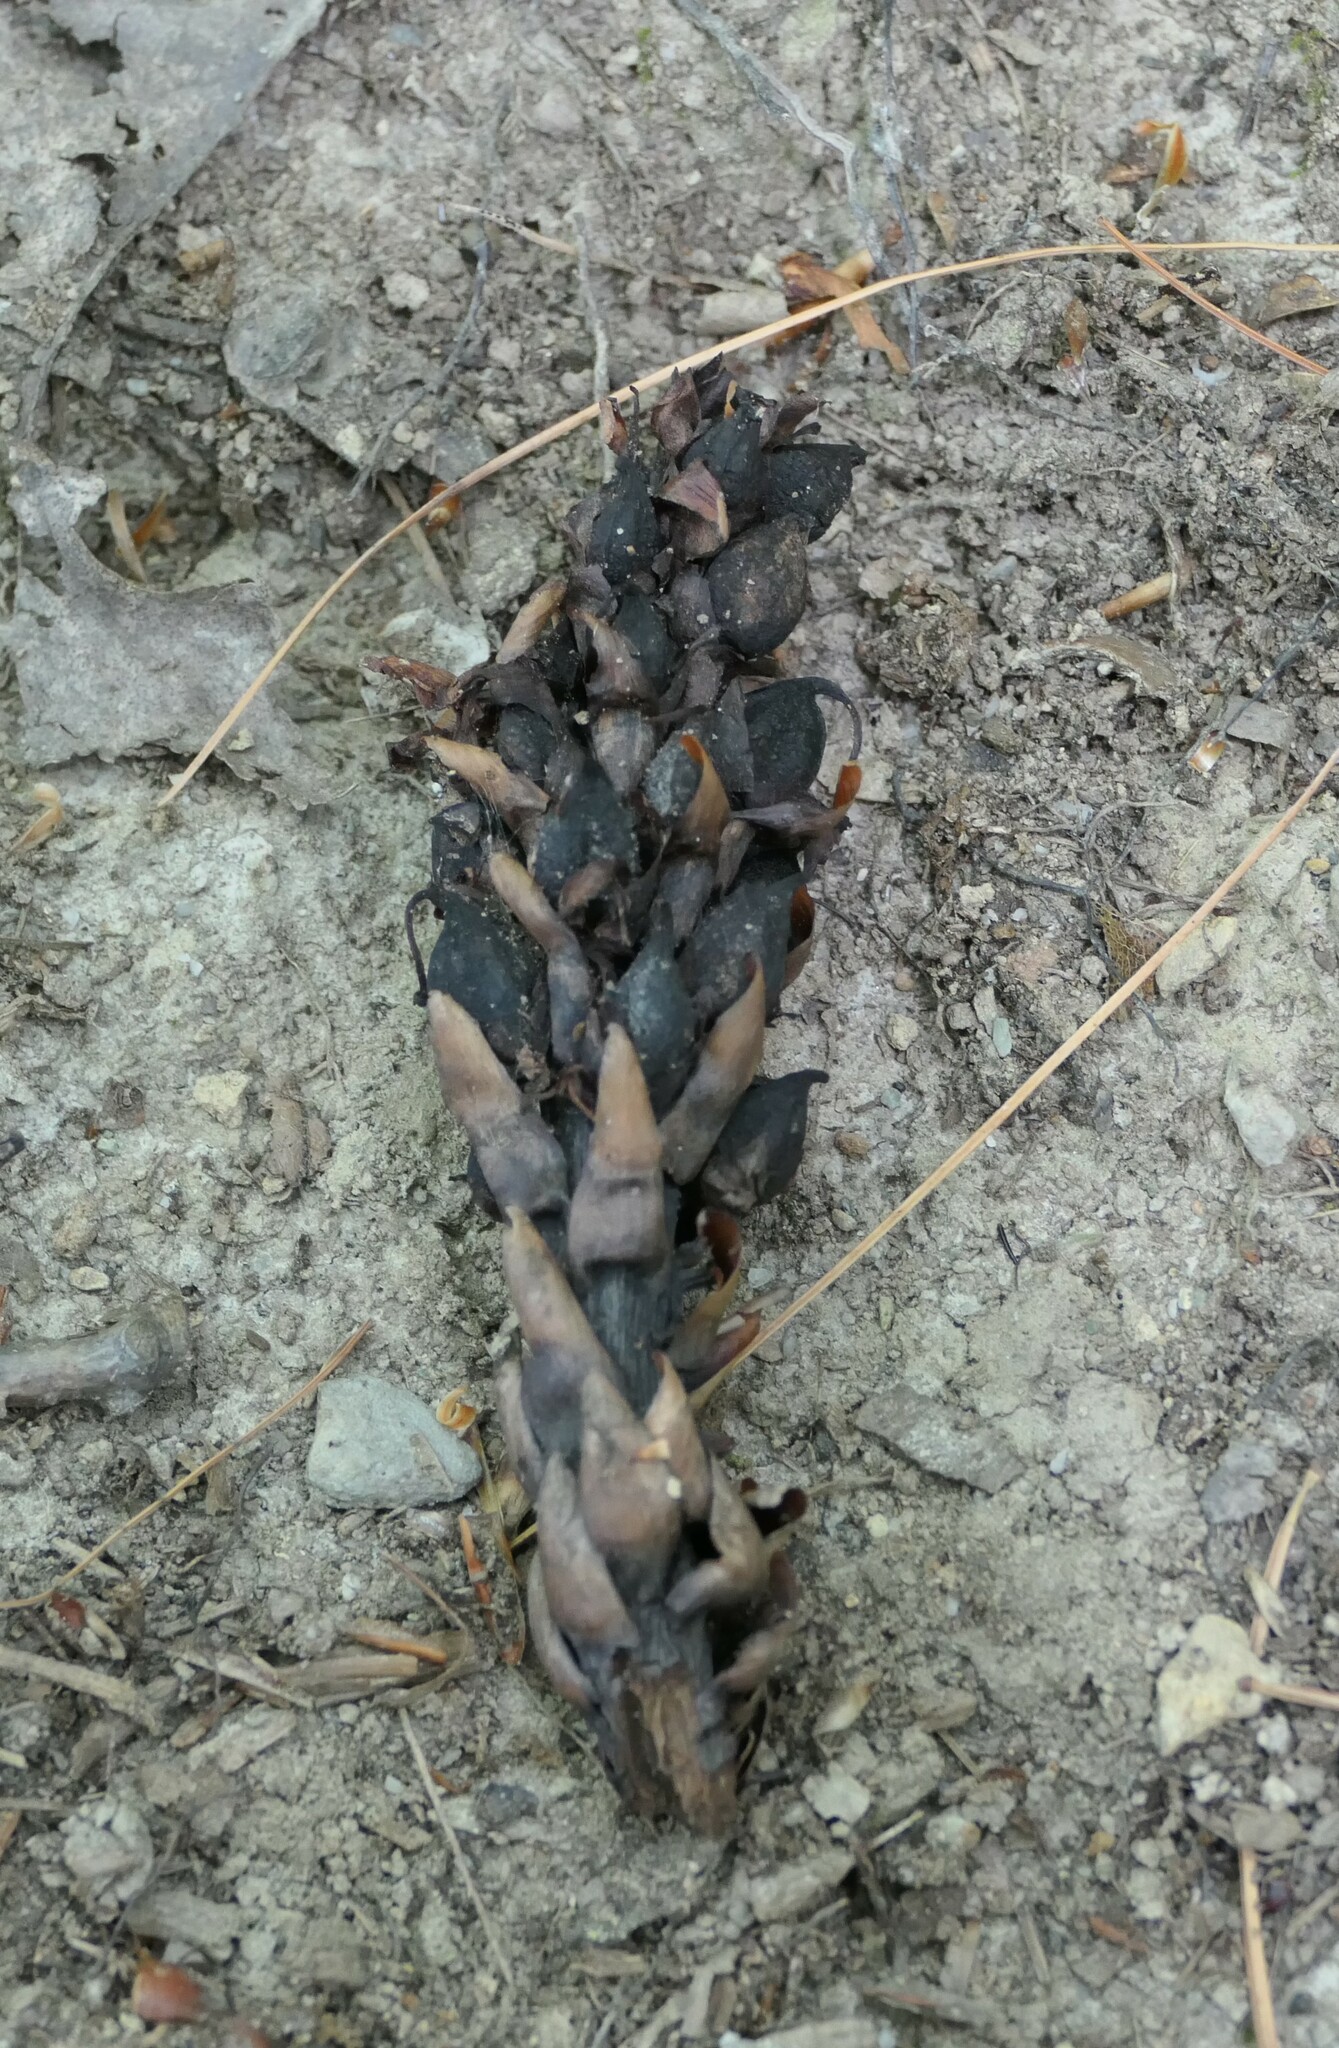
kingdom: Plantae
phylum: Tracheophyta
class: Magnoliopsida
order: Lamiales
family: Orobanchaceae
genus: Conopholis
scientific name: Conopholis americana
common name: American cancer-root
